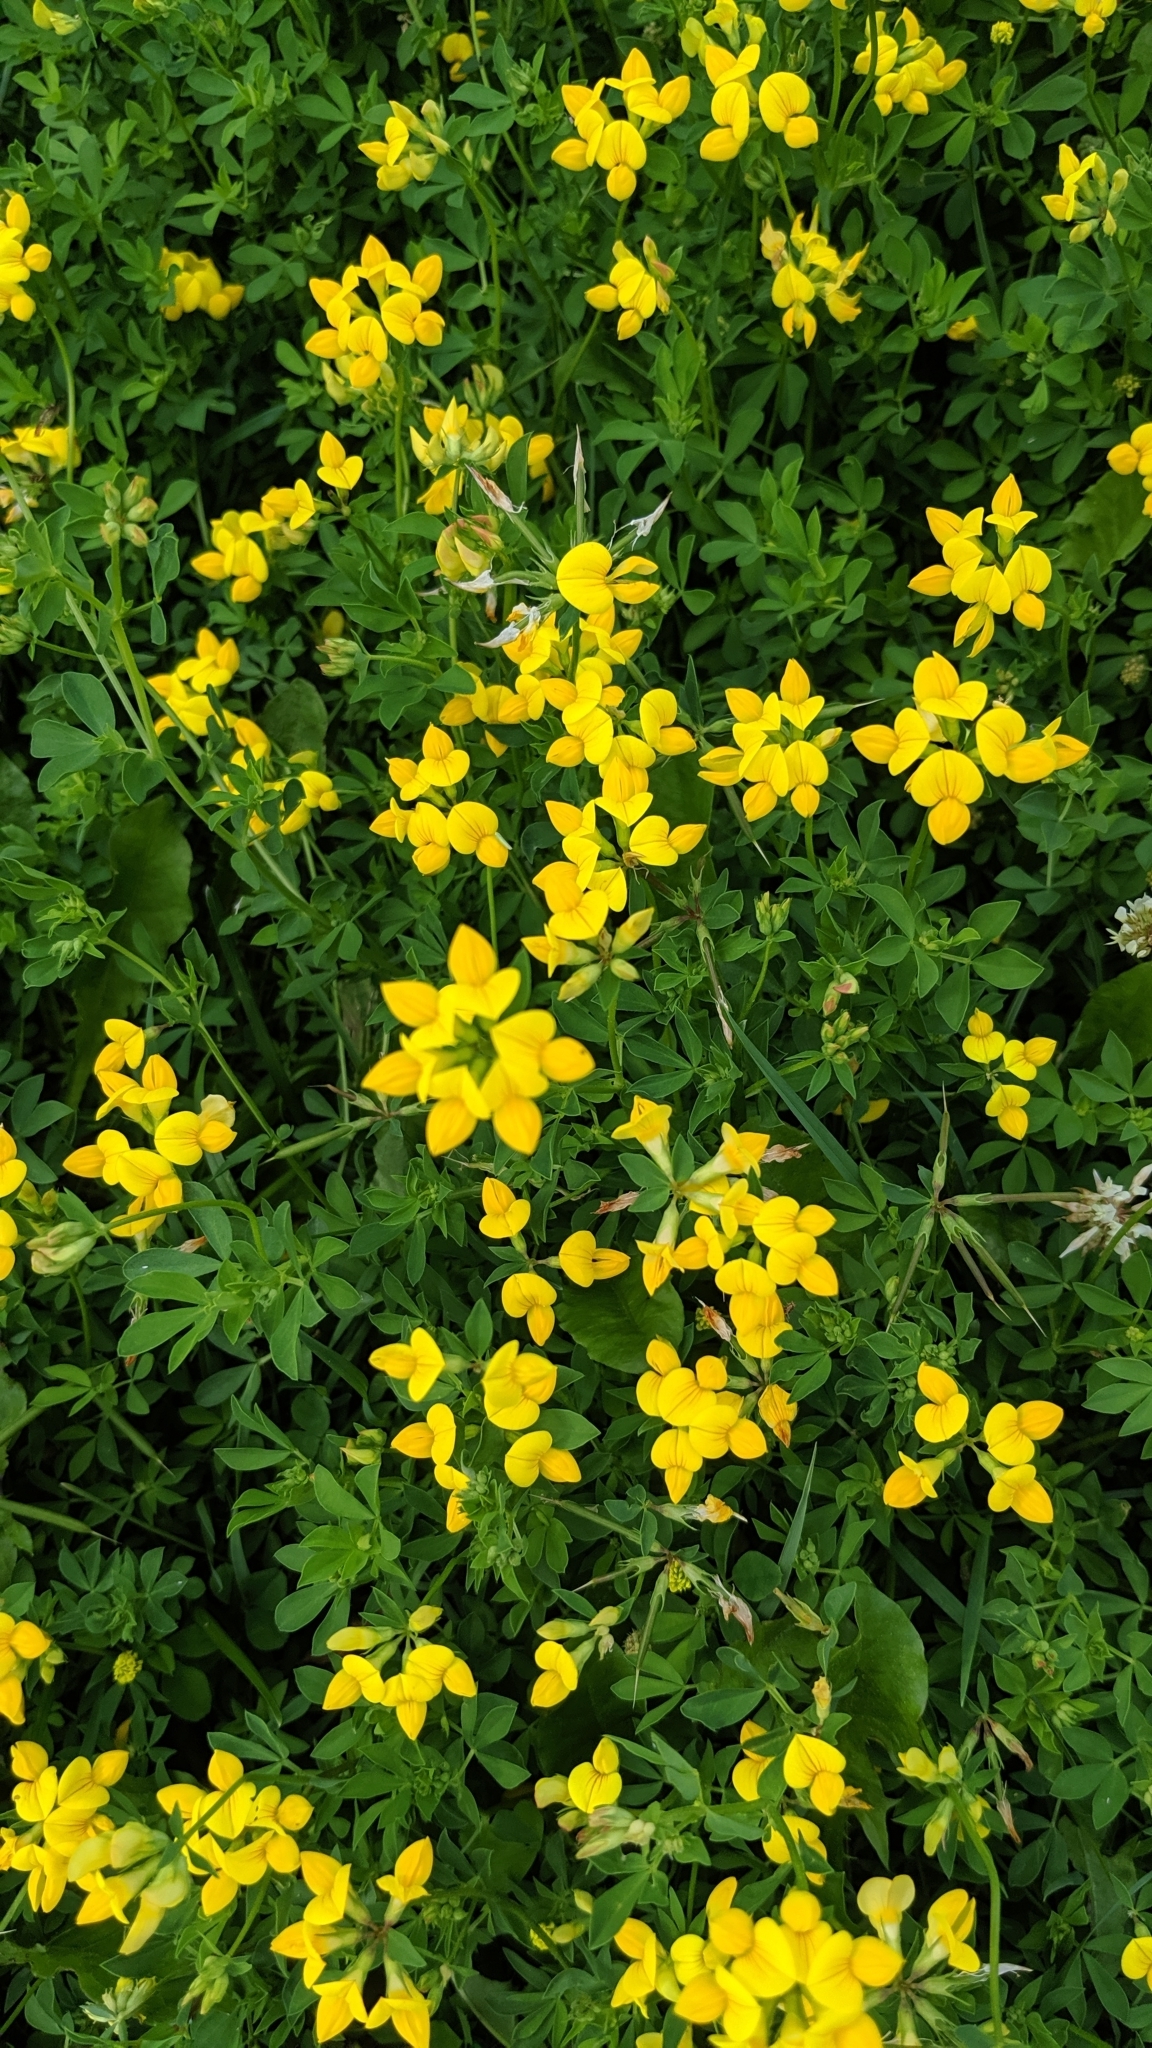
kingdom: Plantae
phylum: Tracheophyta
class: Magnoliopsida
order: Fabales
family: Fabaceae
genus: Lotus
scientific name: Lotus corniculatus
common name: Common bird's-foot-trefoil
